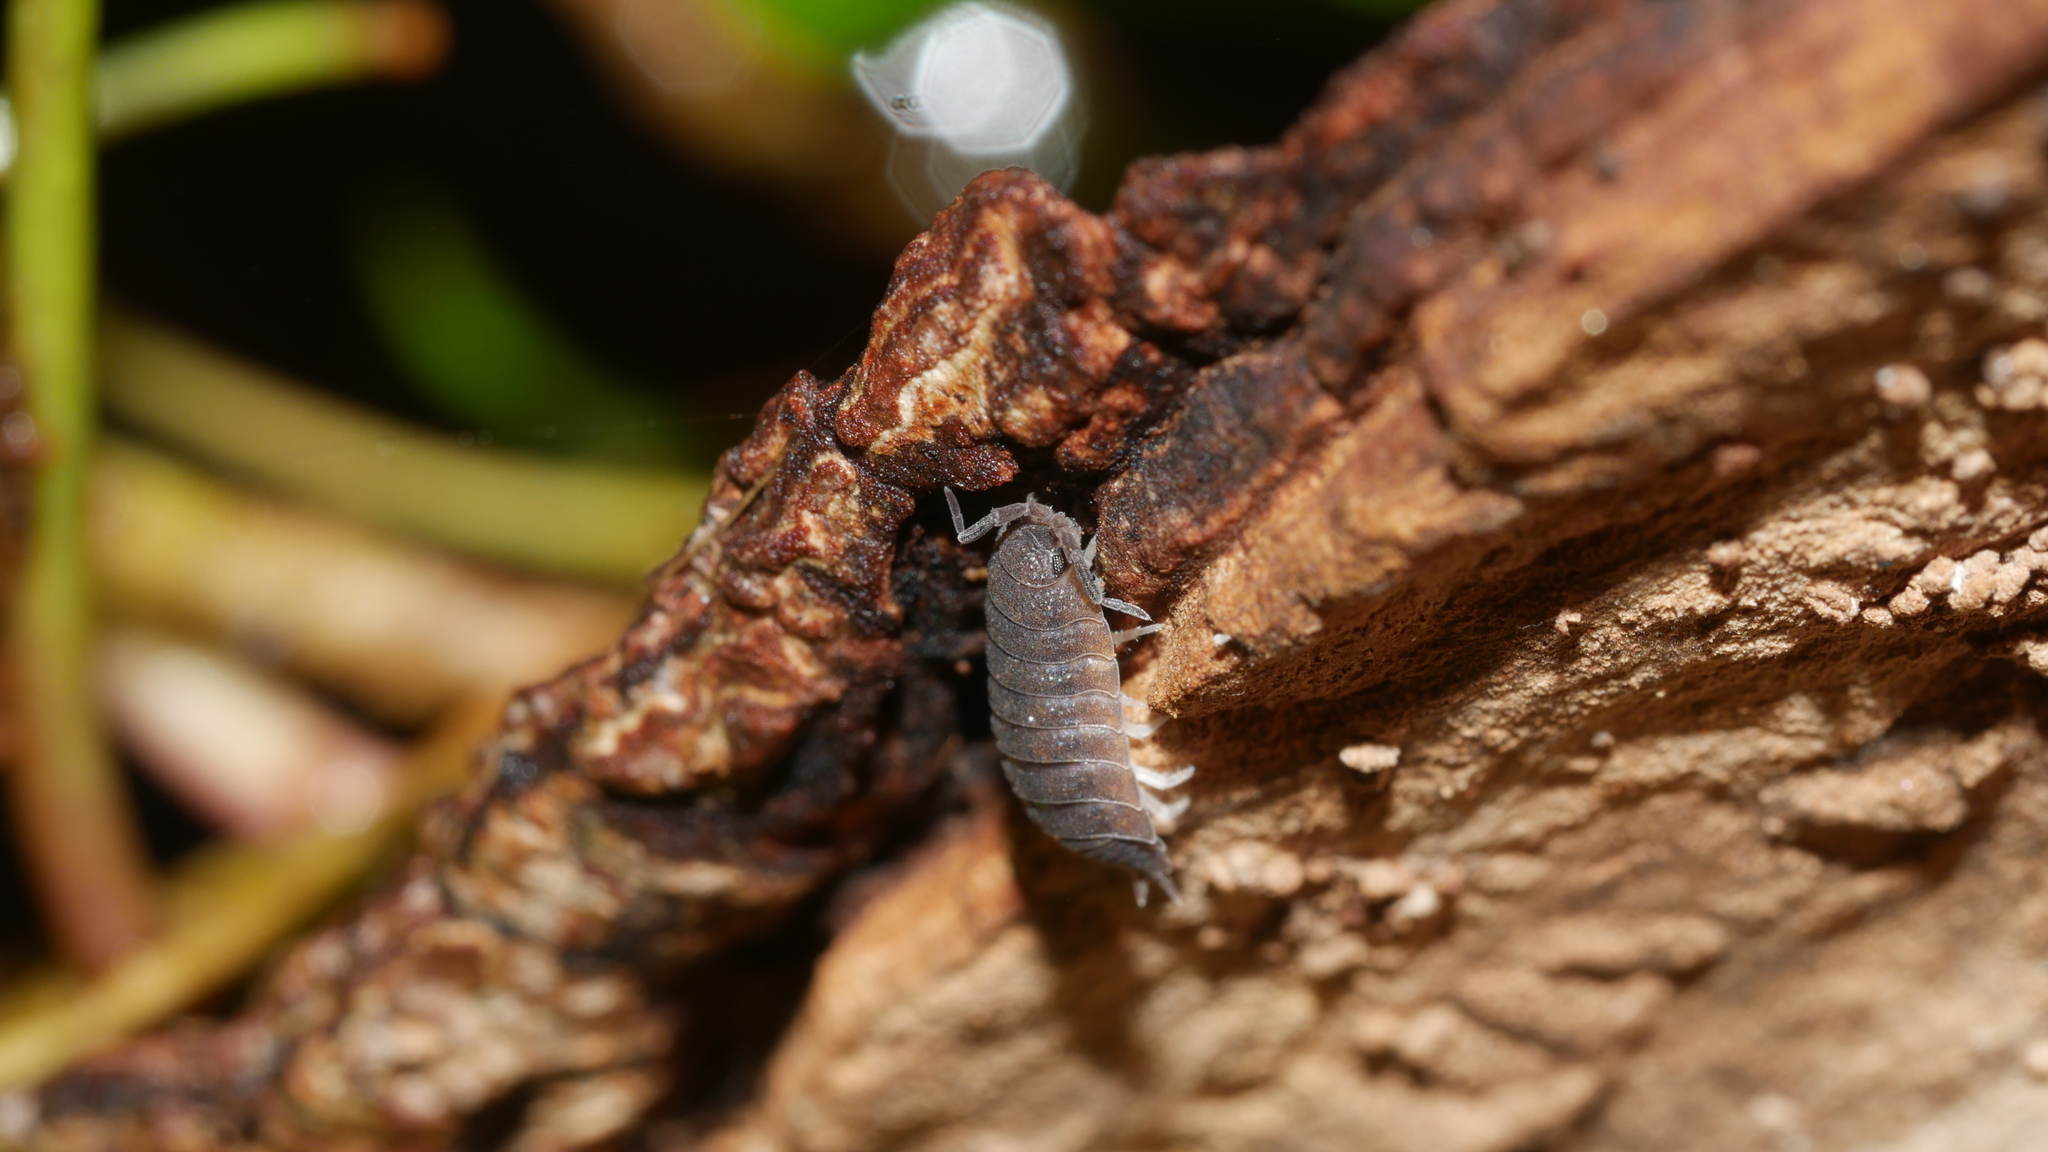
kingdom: Animalia
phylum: Arthropoda
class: Malacostraca
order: Isopoda
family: Porcellionidae
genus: Porcellio
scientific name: Porcellio scaber
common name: Common rough woodlouse
